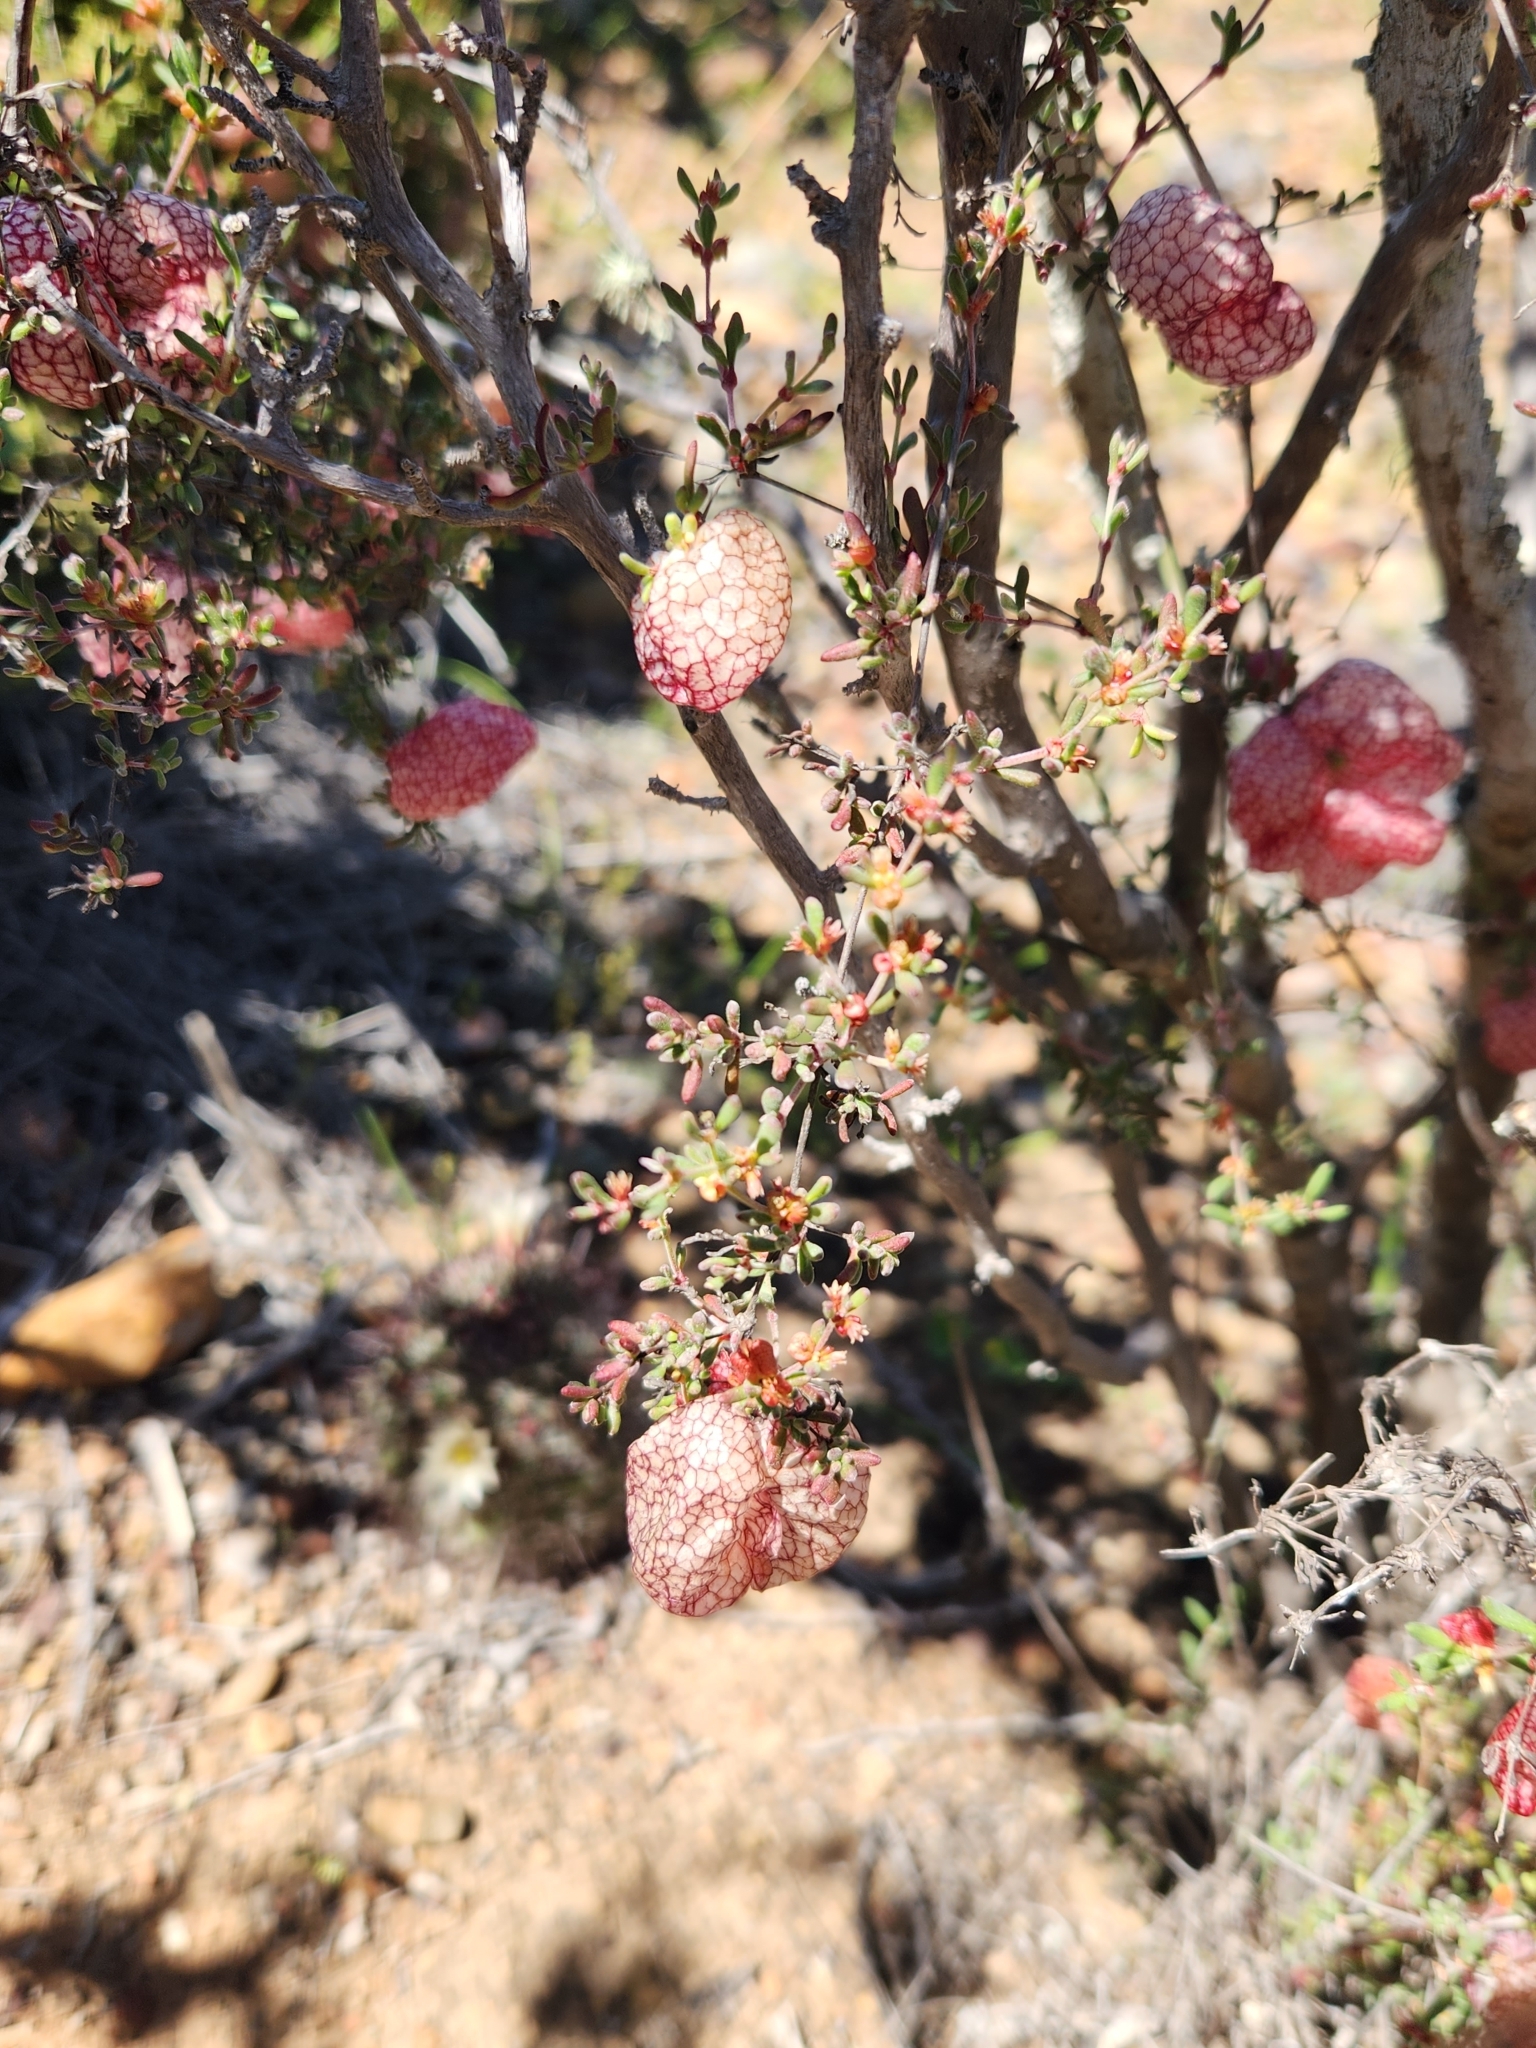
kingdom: Plantae
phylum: Tracheophyta
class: Magnoliopsida
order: Caryophyllales
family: Polygonaceae
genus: Harfordia
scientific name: Harfordia macroptera
